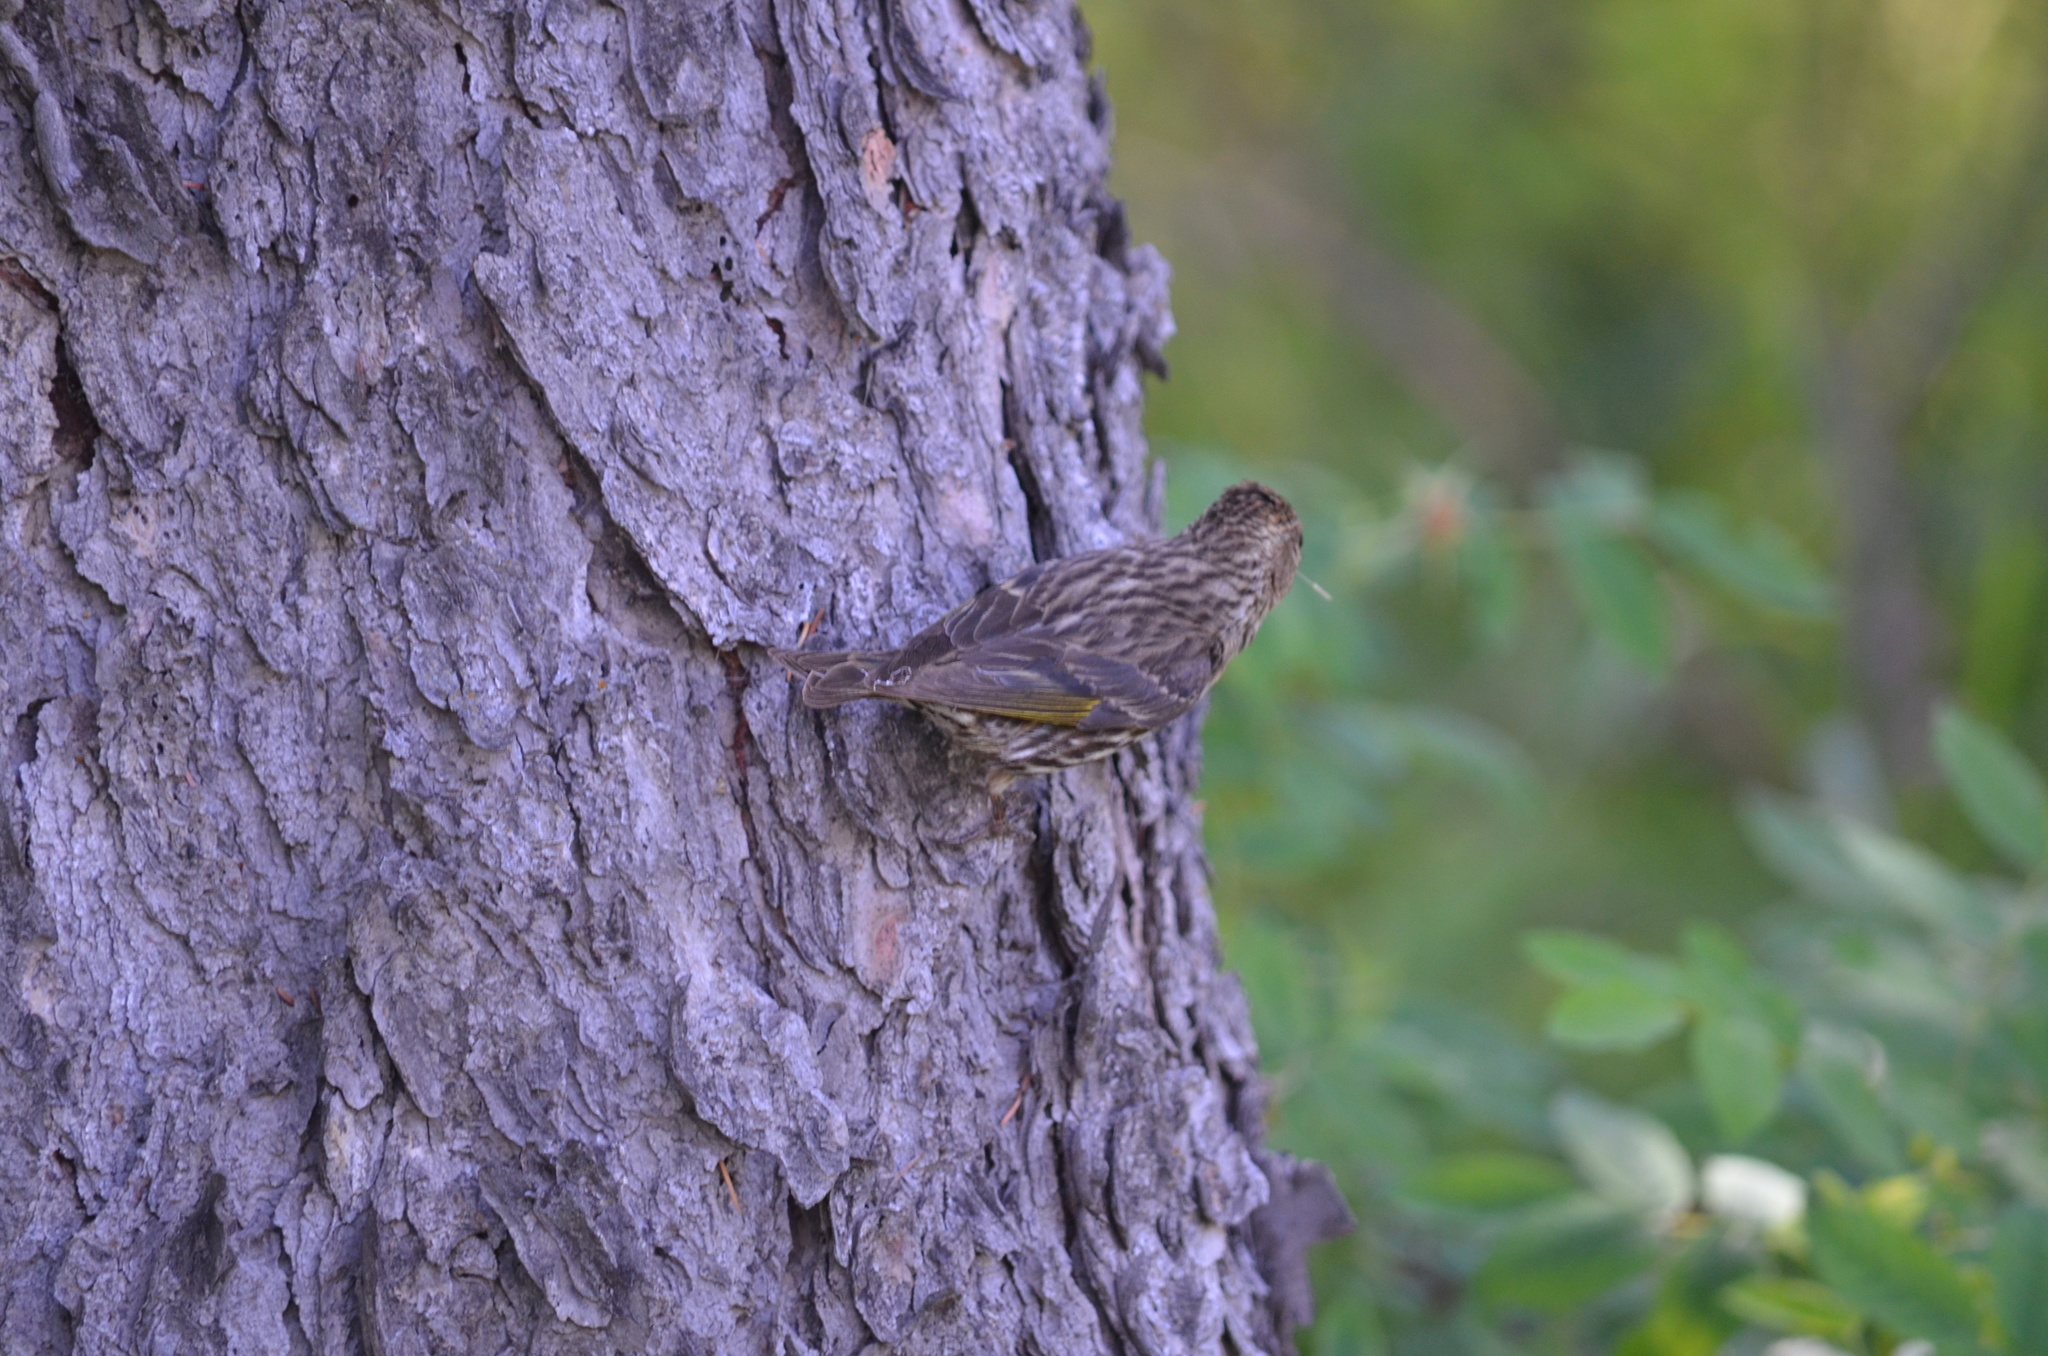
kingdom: Animalia
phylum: Chordata
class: Aves
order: Passeriformes
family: Fringillidae
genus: Spinus
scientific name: Spinus pinus
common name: Pine siskin
